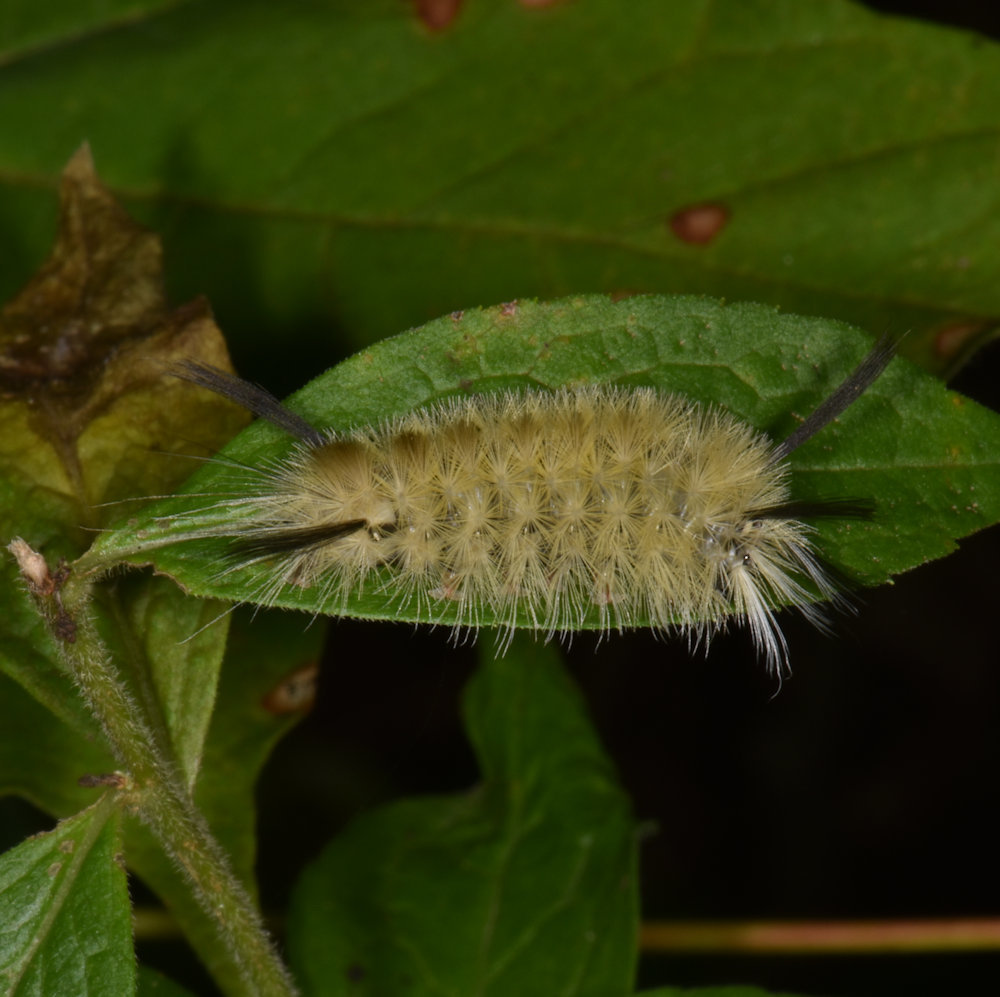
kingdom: Animalia
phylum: Arthropoda
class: Insecta
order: Lepidoptera
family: Erebidae
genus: Halysidota
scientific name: Halysidota tessellaris
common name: Banded tussock moth
